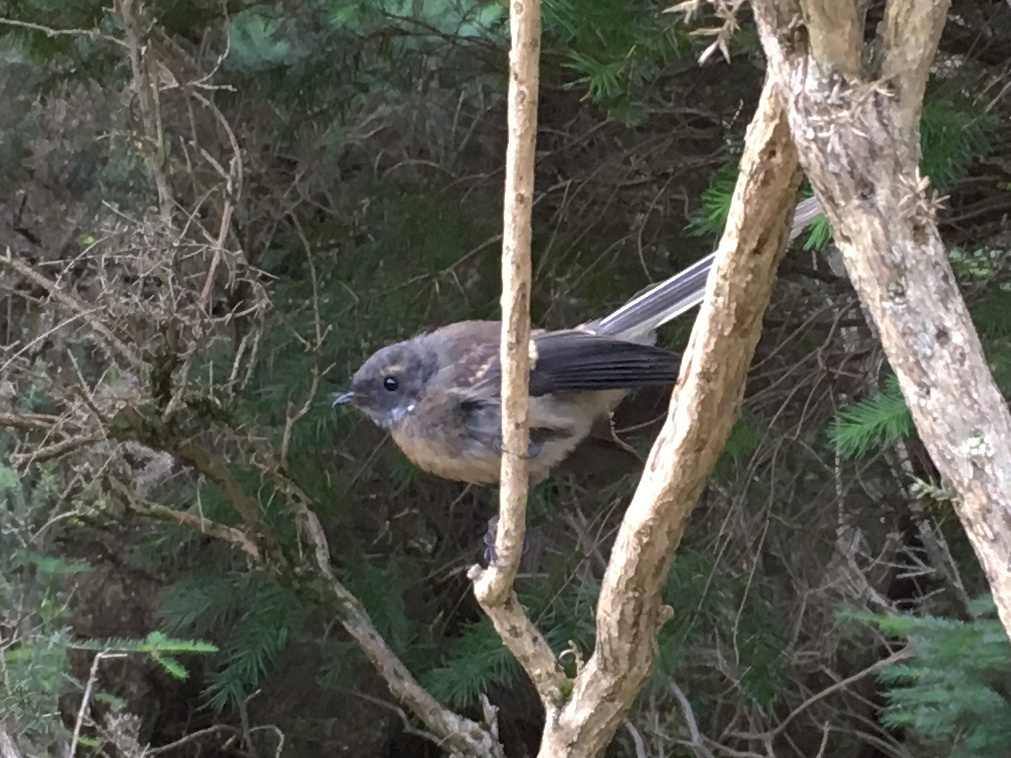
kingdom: Animalia
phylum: Chordata
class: Aves
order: Passeriformes
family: Rhipiduridae
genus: Rhipidura
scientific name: Rhipidura fuliginosa
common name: New zealand fantail
